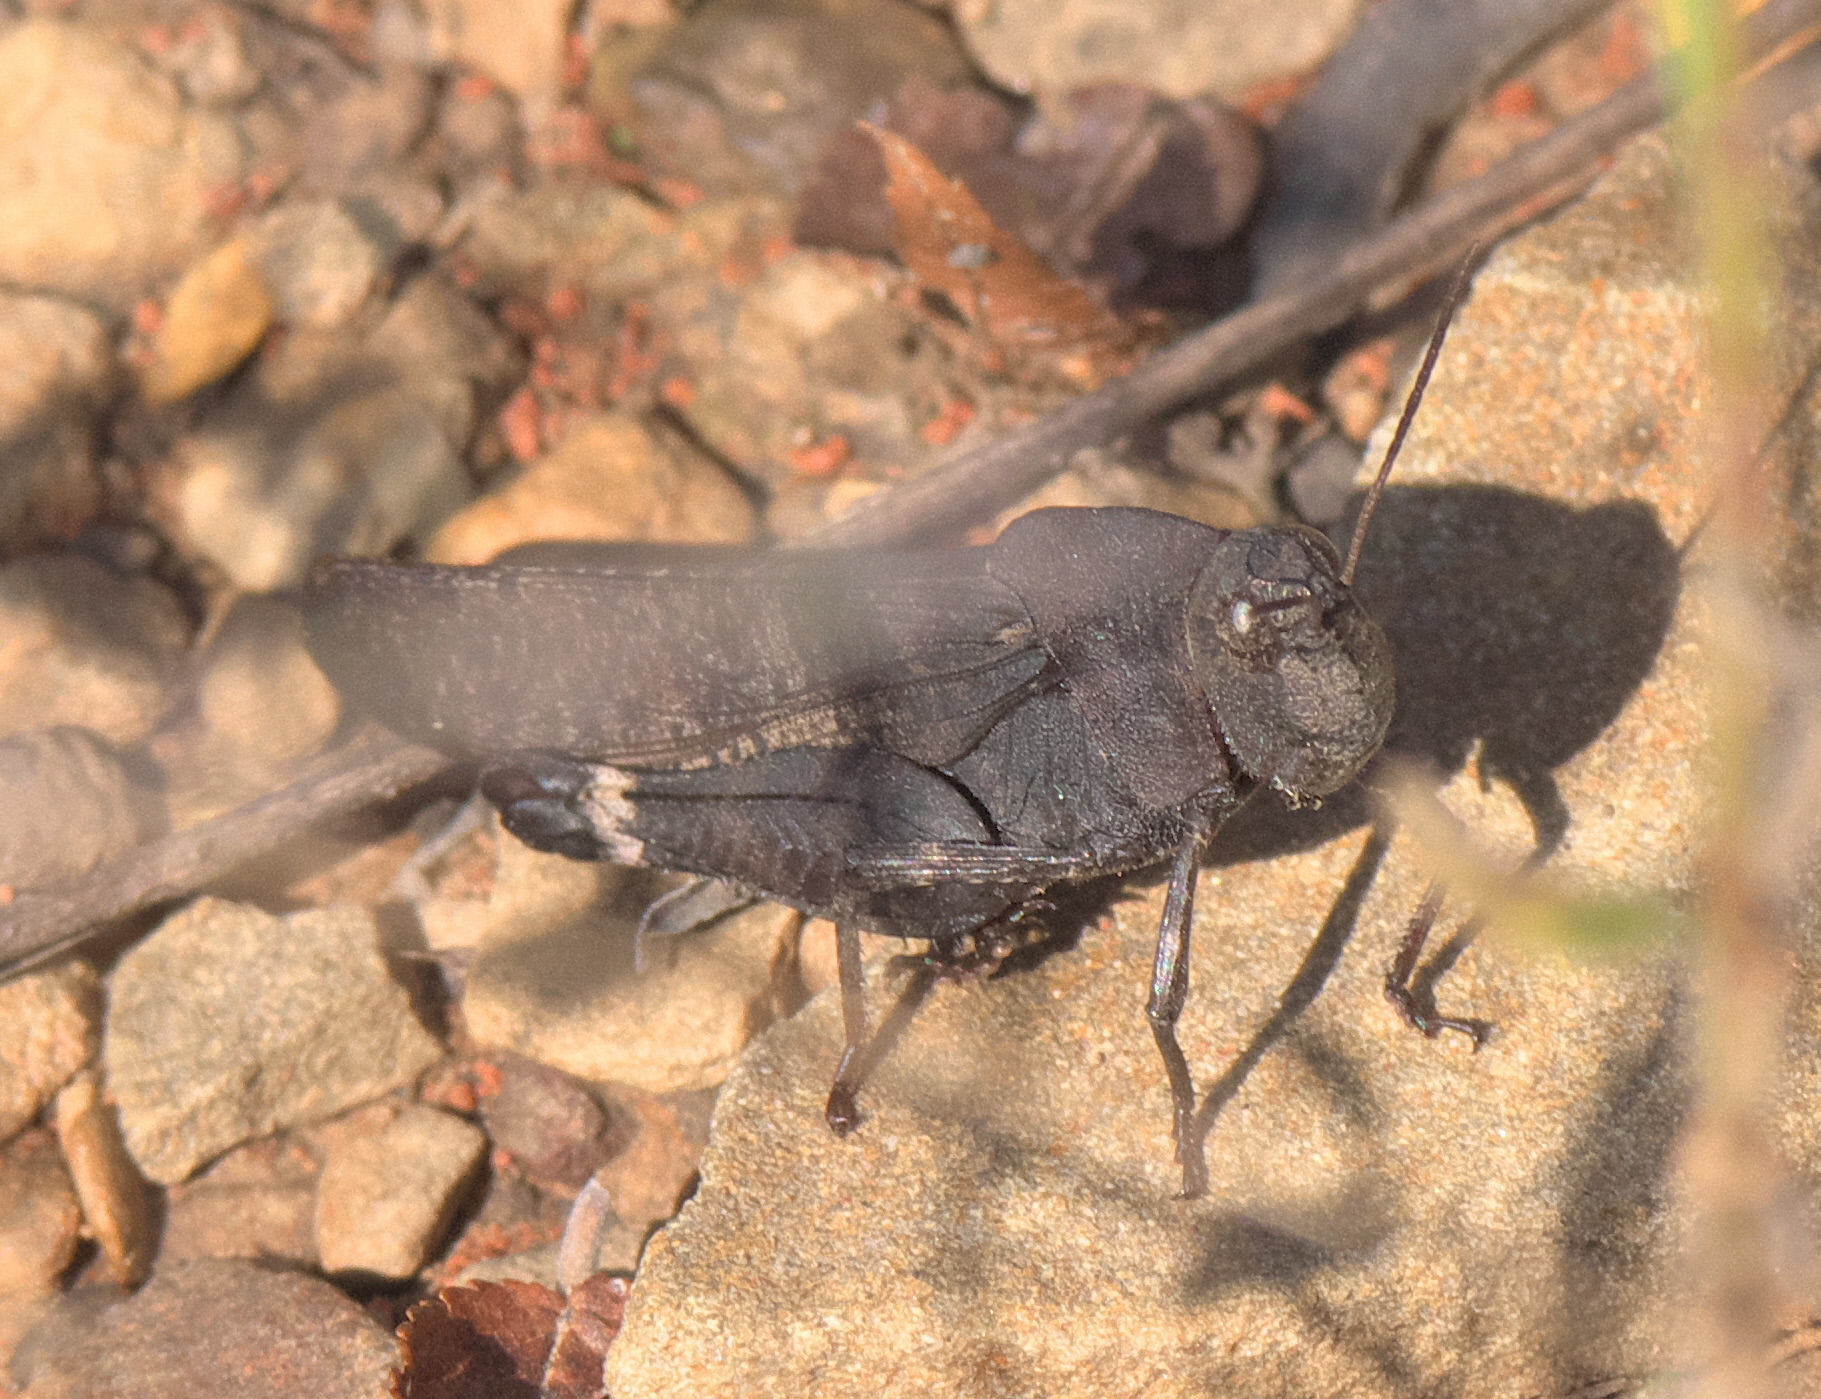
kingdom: Animalia
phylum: Arthropoda
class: Insecta
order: Orthoptera
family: Acrididae
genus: Arphia
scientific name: Arphia xanthoptera
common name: Autumn yellow-winged grasshopper
